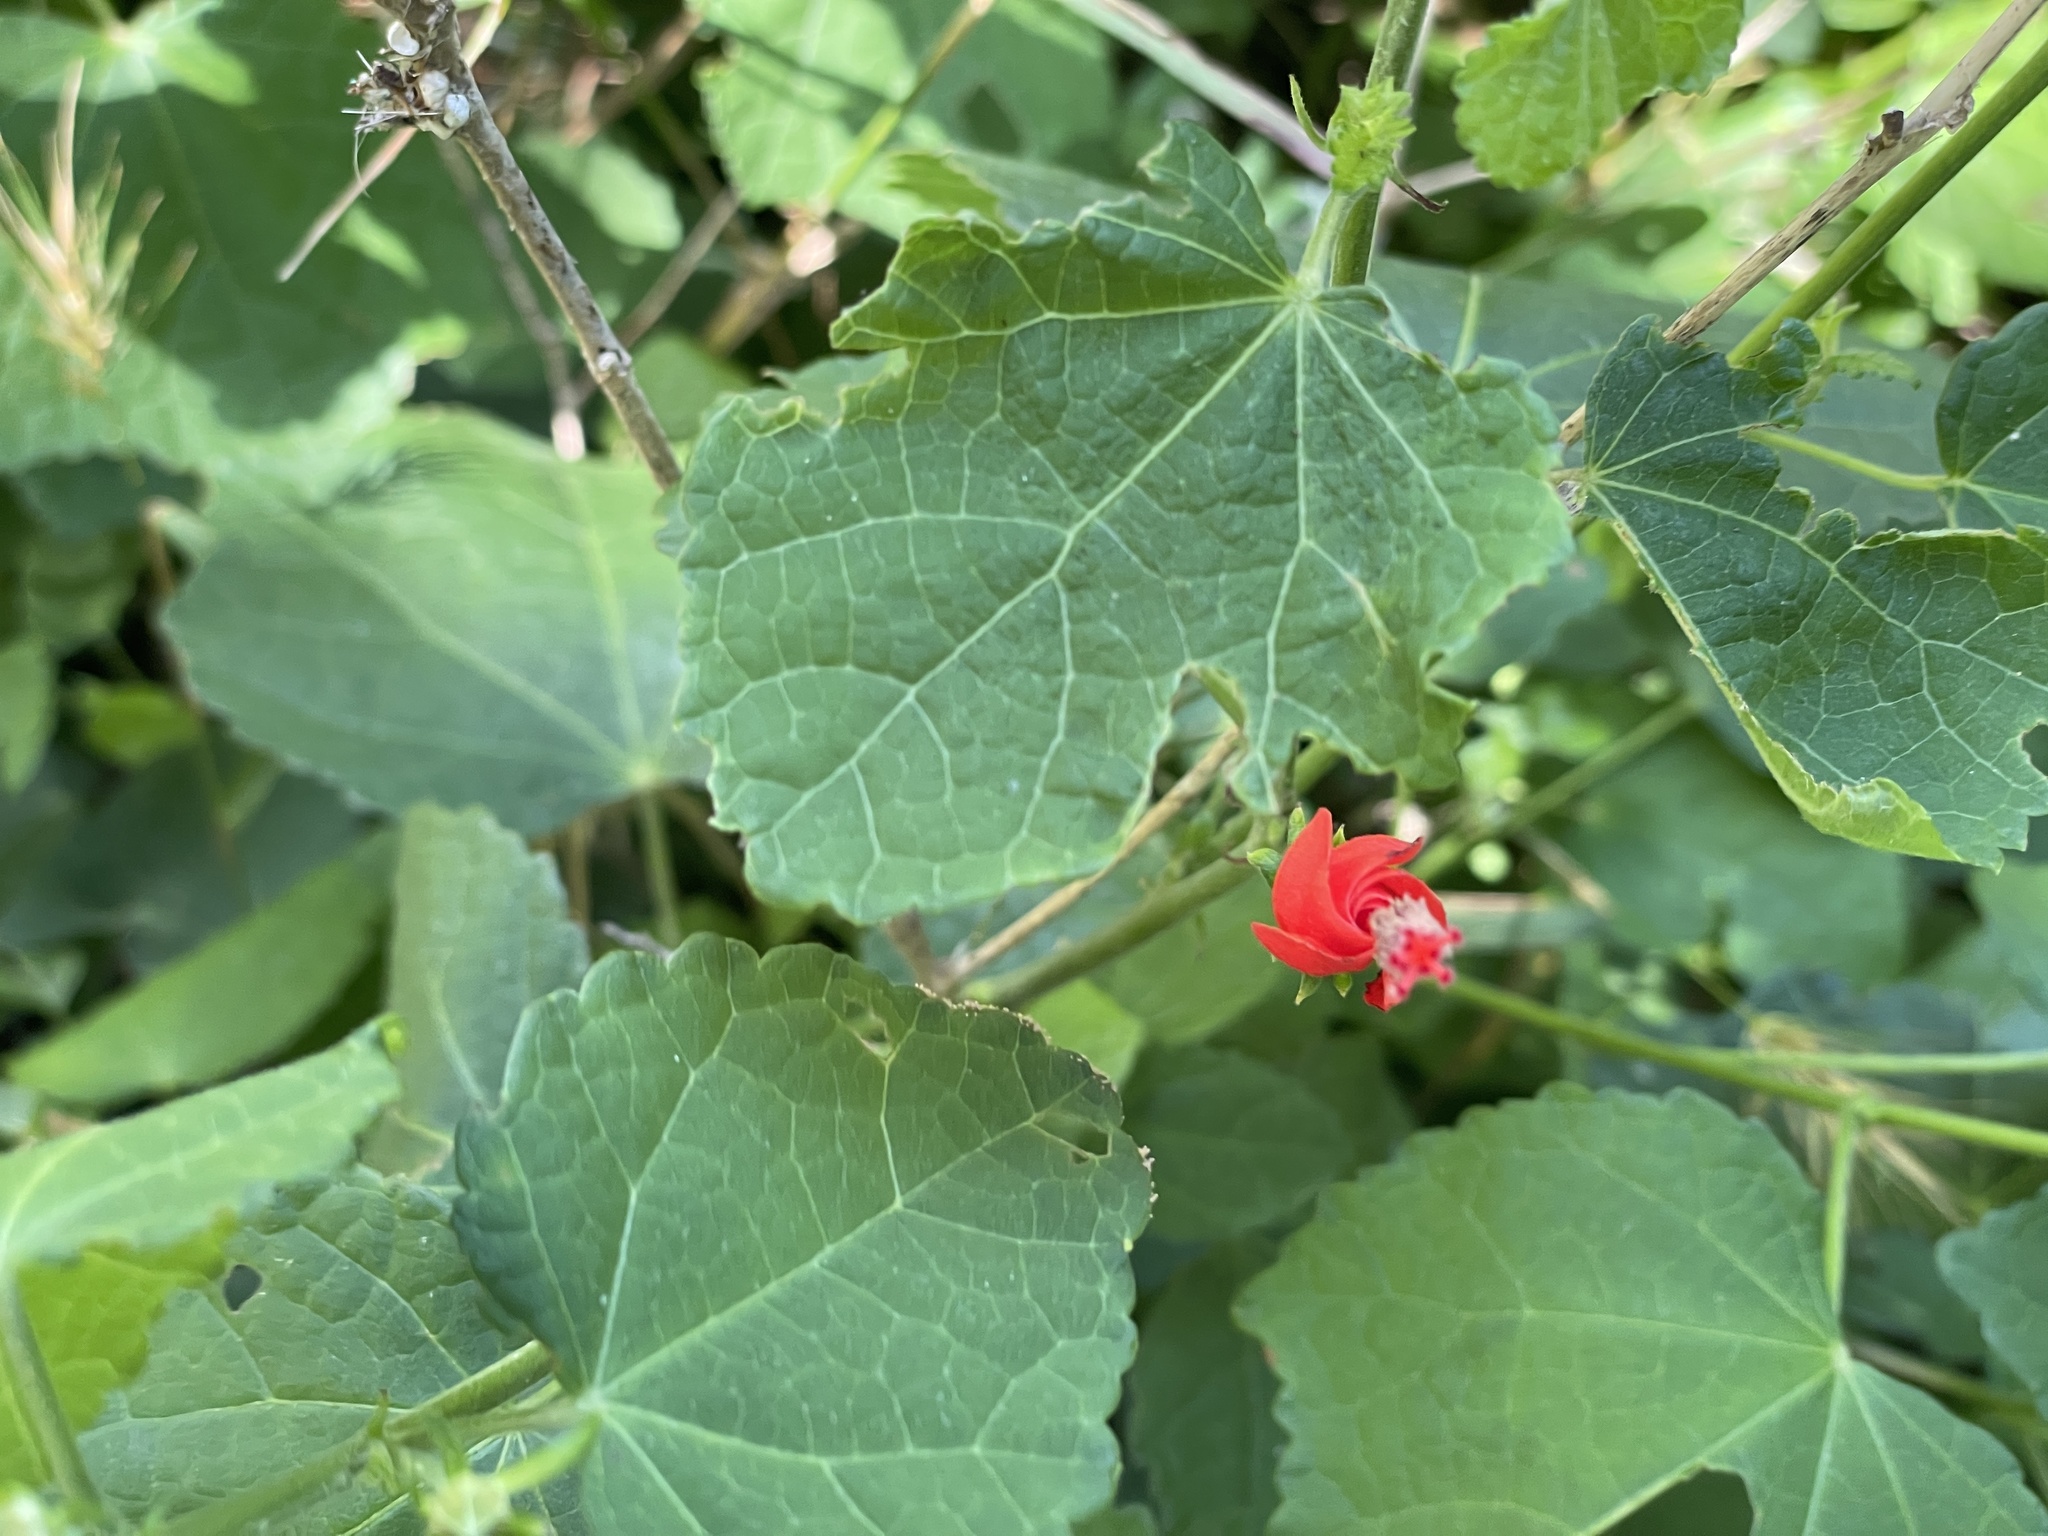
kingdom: Plantae
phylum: Tracheophyta
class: Magnoliopsida
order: Malvales
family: Malvaceae
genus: Malvaviscus
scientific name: Malvaviscus arboreus
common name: Wax mallow
